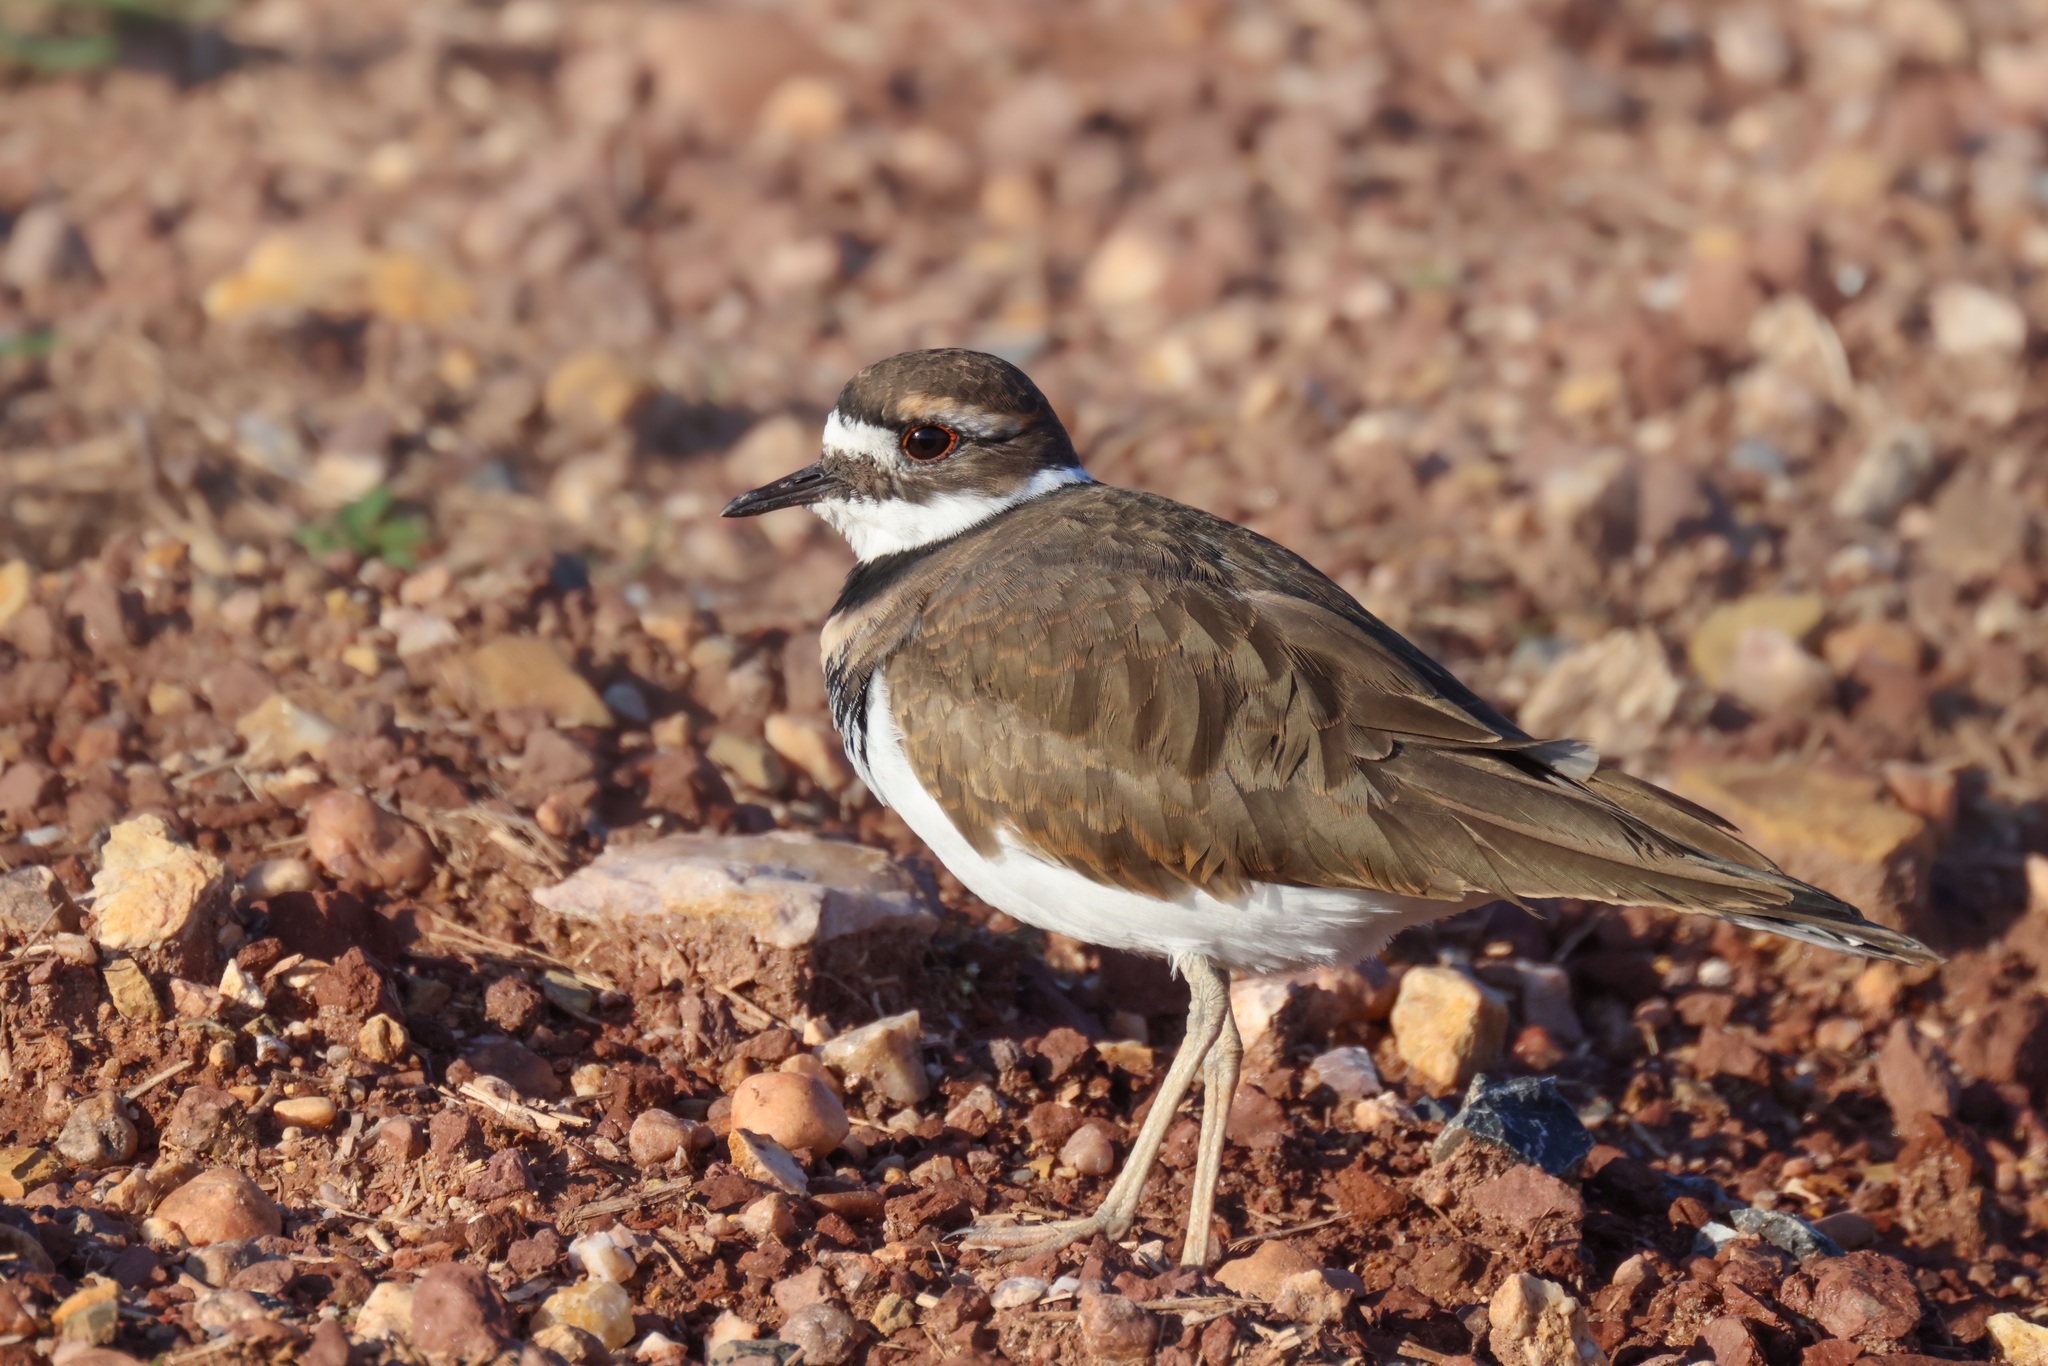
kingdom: Animalia
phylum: Chordata
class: Aves
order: Charadriiformes
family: Charadriidae
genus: Charadrius
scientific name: Charadrius vociferus
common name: Killdeer
